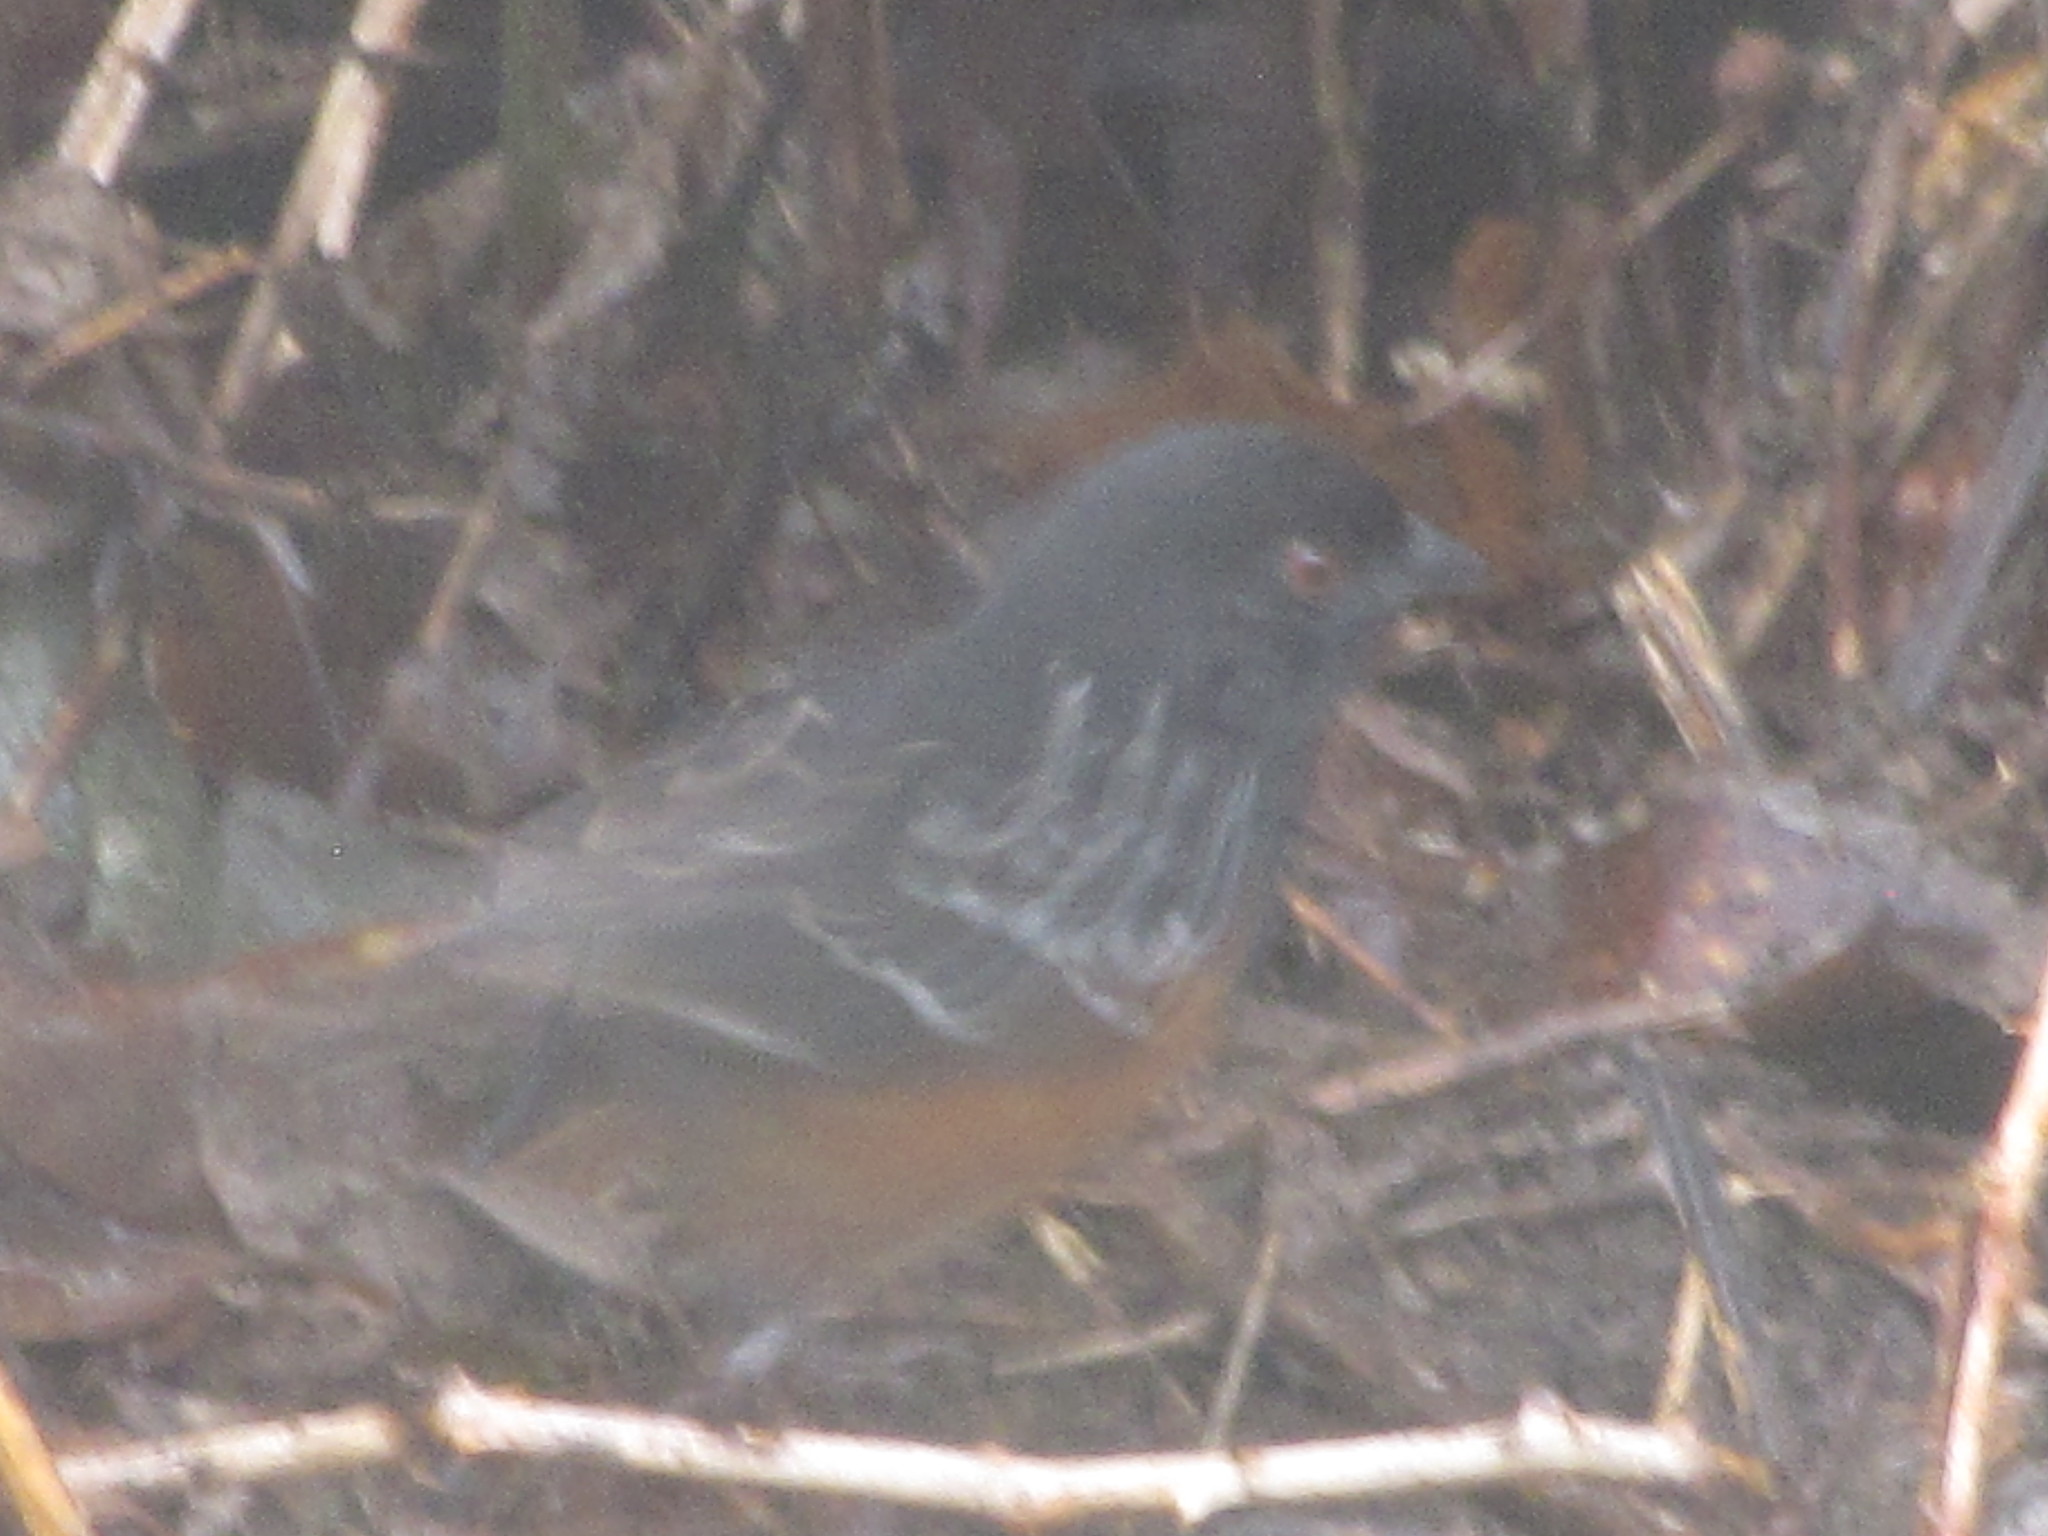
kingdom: Animalia
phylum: Chordata
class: Aves
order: Passeriformes
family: Passerellidae
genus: Pipilo
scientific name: Pipilo maculatus
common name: Spotted towhee
